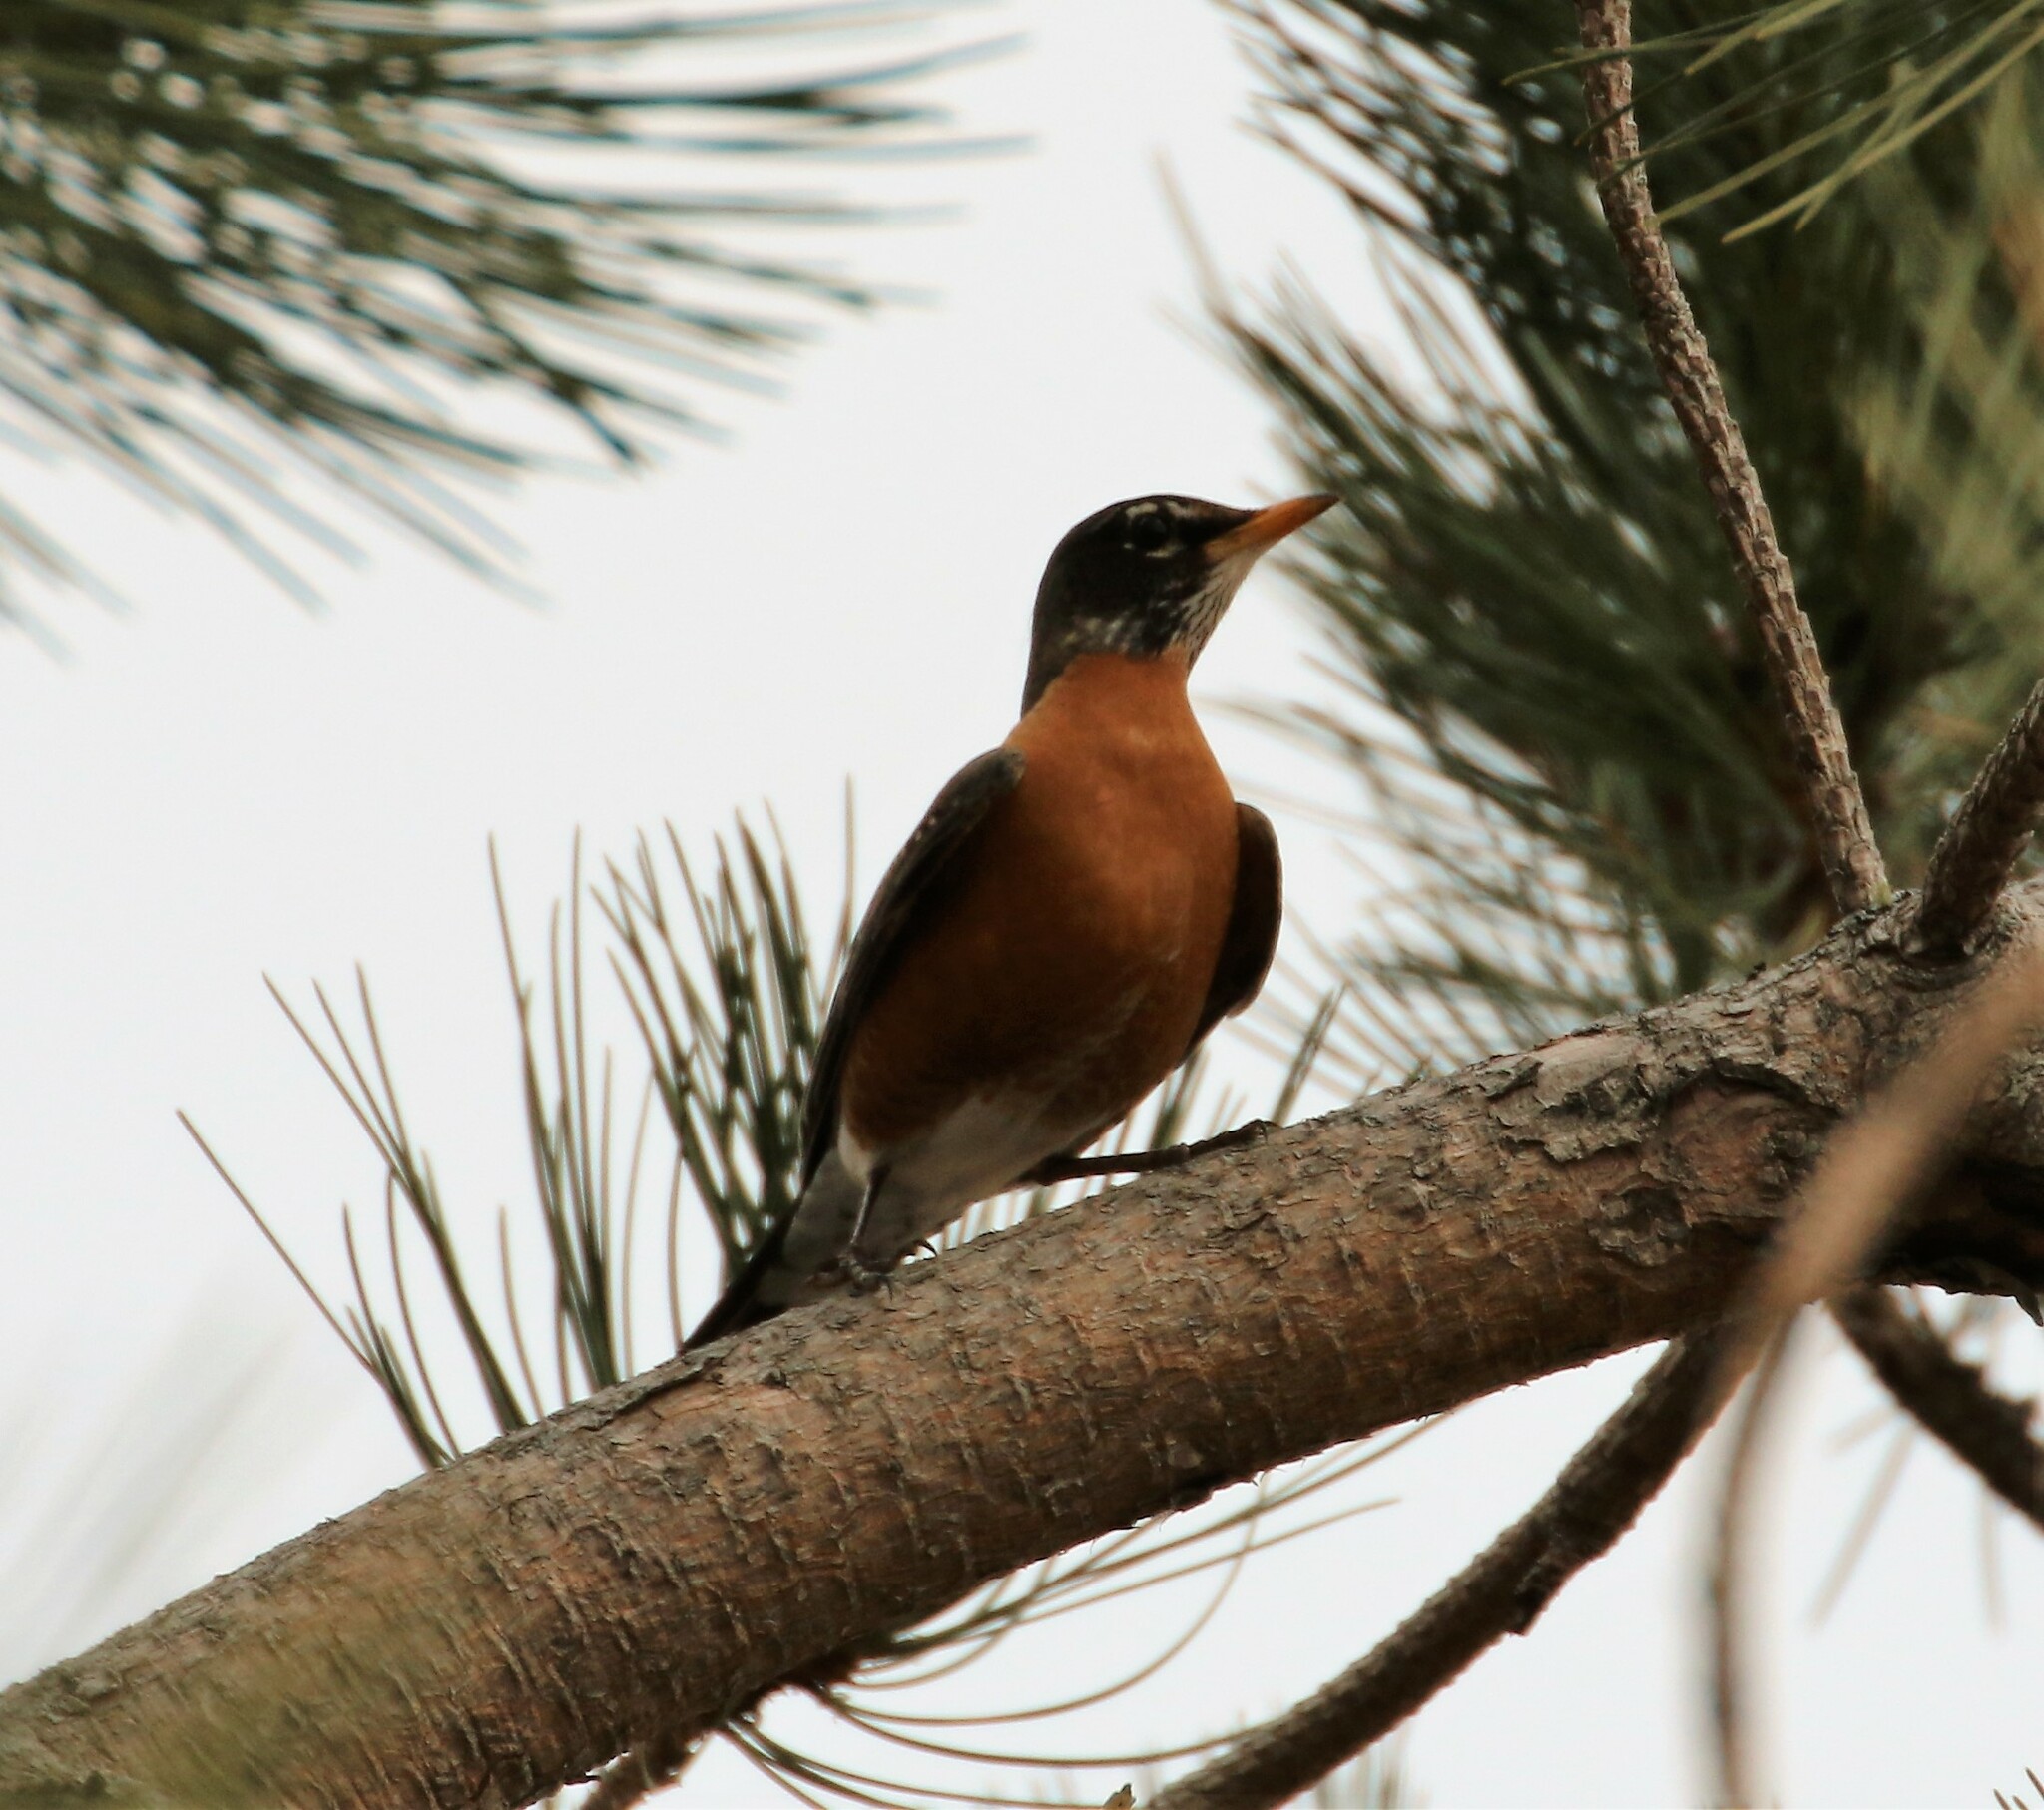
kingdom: Animalia
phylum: Chordata
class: Aves
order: Passeriformes
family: Turdidae
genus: Turdus
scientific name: Turdus migratorius
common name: American robin
